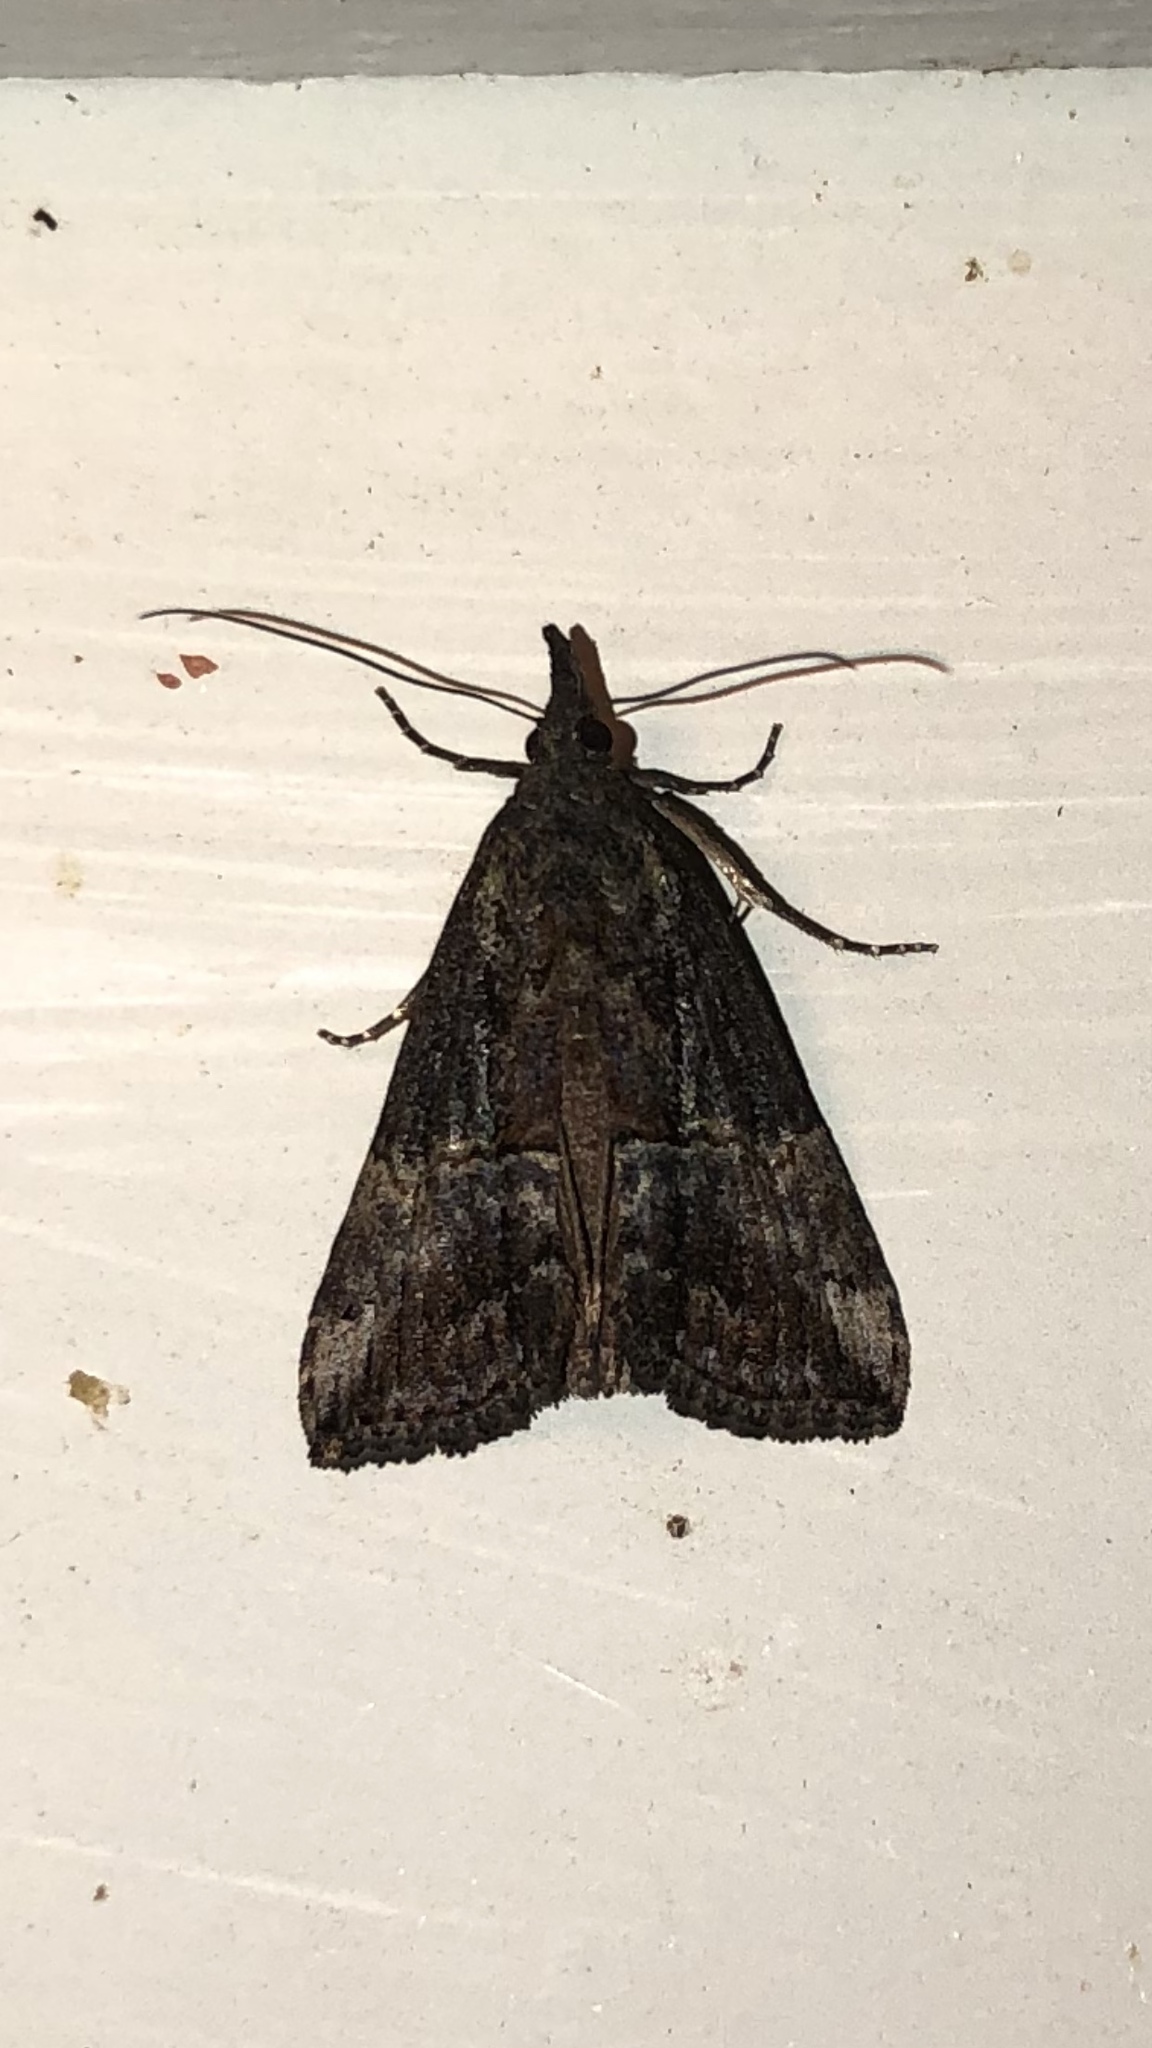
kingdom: Animalia
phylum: Arthropoda
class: Insecta
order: Lepidoptera
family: Erebidae
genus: Hypena
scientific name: Hypena scabra
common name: Green cloverworm
